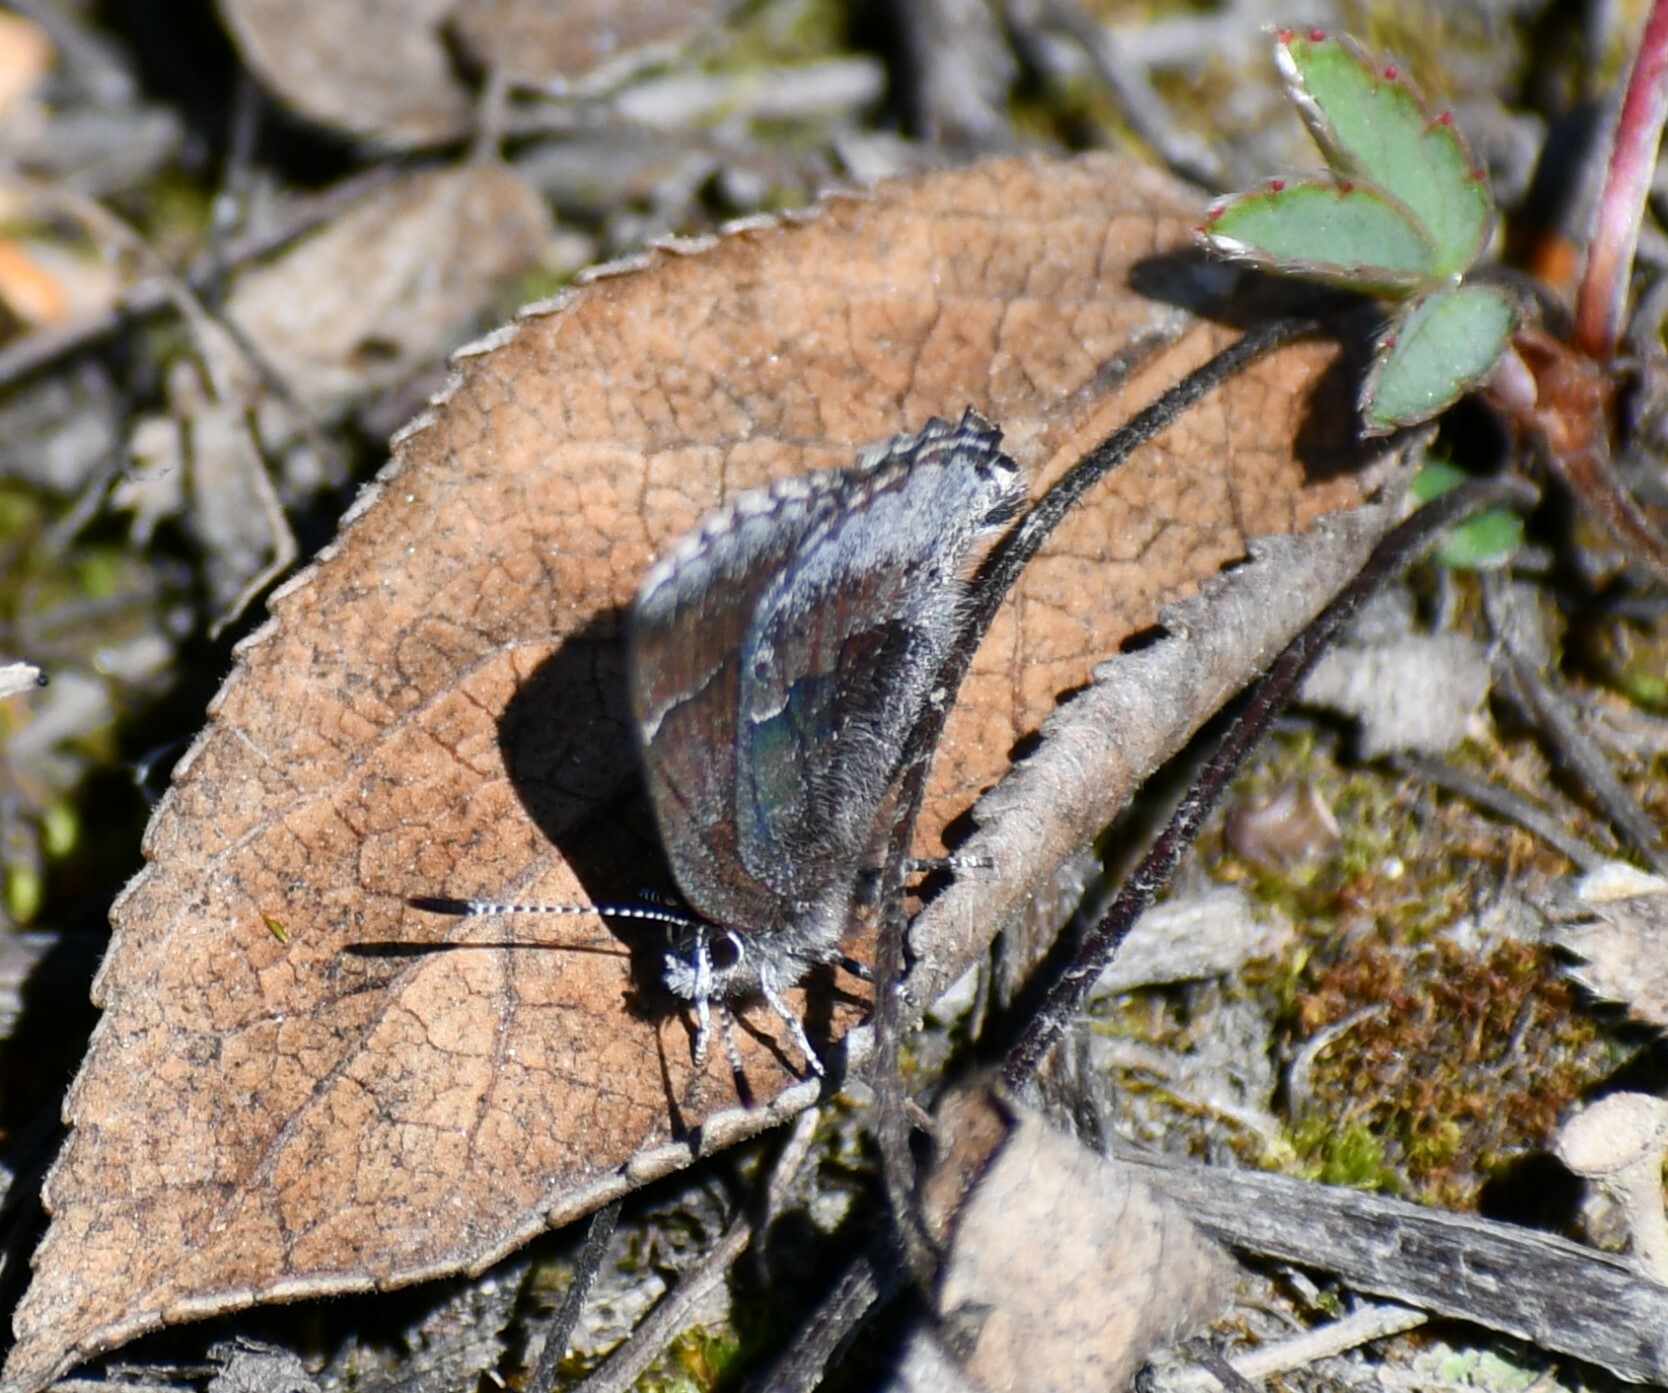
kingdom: Animalia
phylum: Arthropoda
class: Insecta
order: Lepidoptera
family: Lycaenidae
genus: Callophrys
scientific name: Callophrys polios
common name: Hoary elfin
